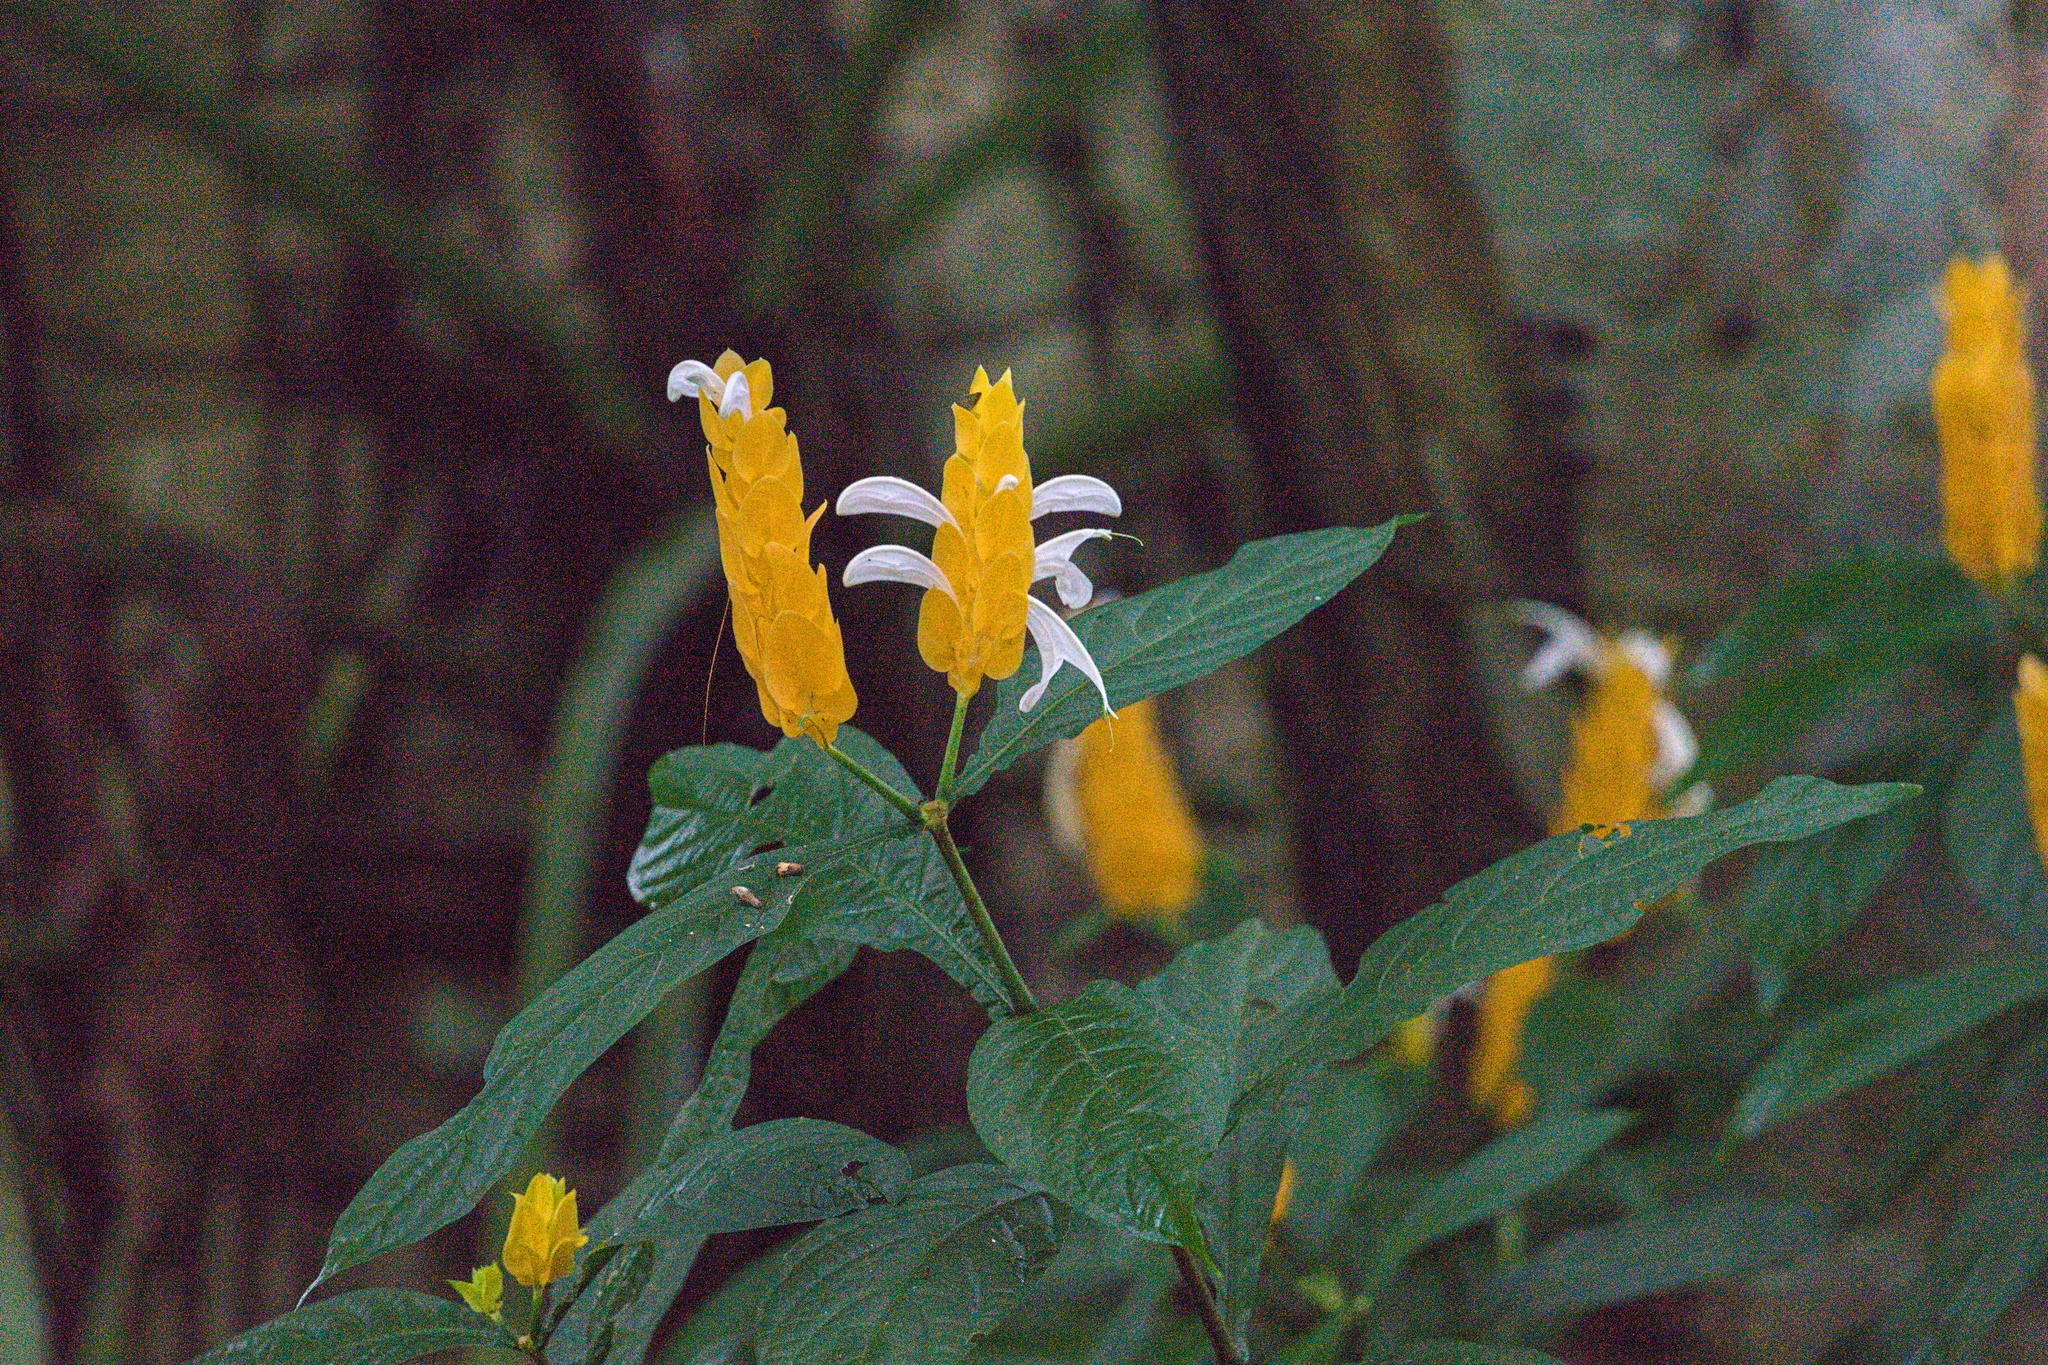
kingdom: Plantae
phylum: Tracheophyta
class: Magnoliopsida
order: Lamiales
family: Acanthaceae
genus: Pachystachys
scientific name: Pachystachys lutea
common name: Golden shrimp-plant
